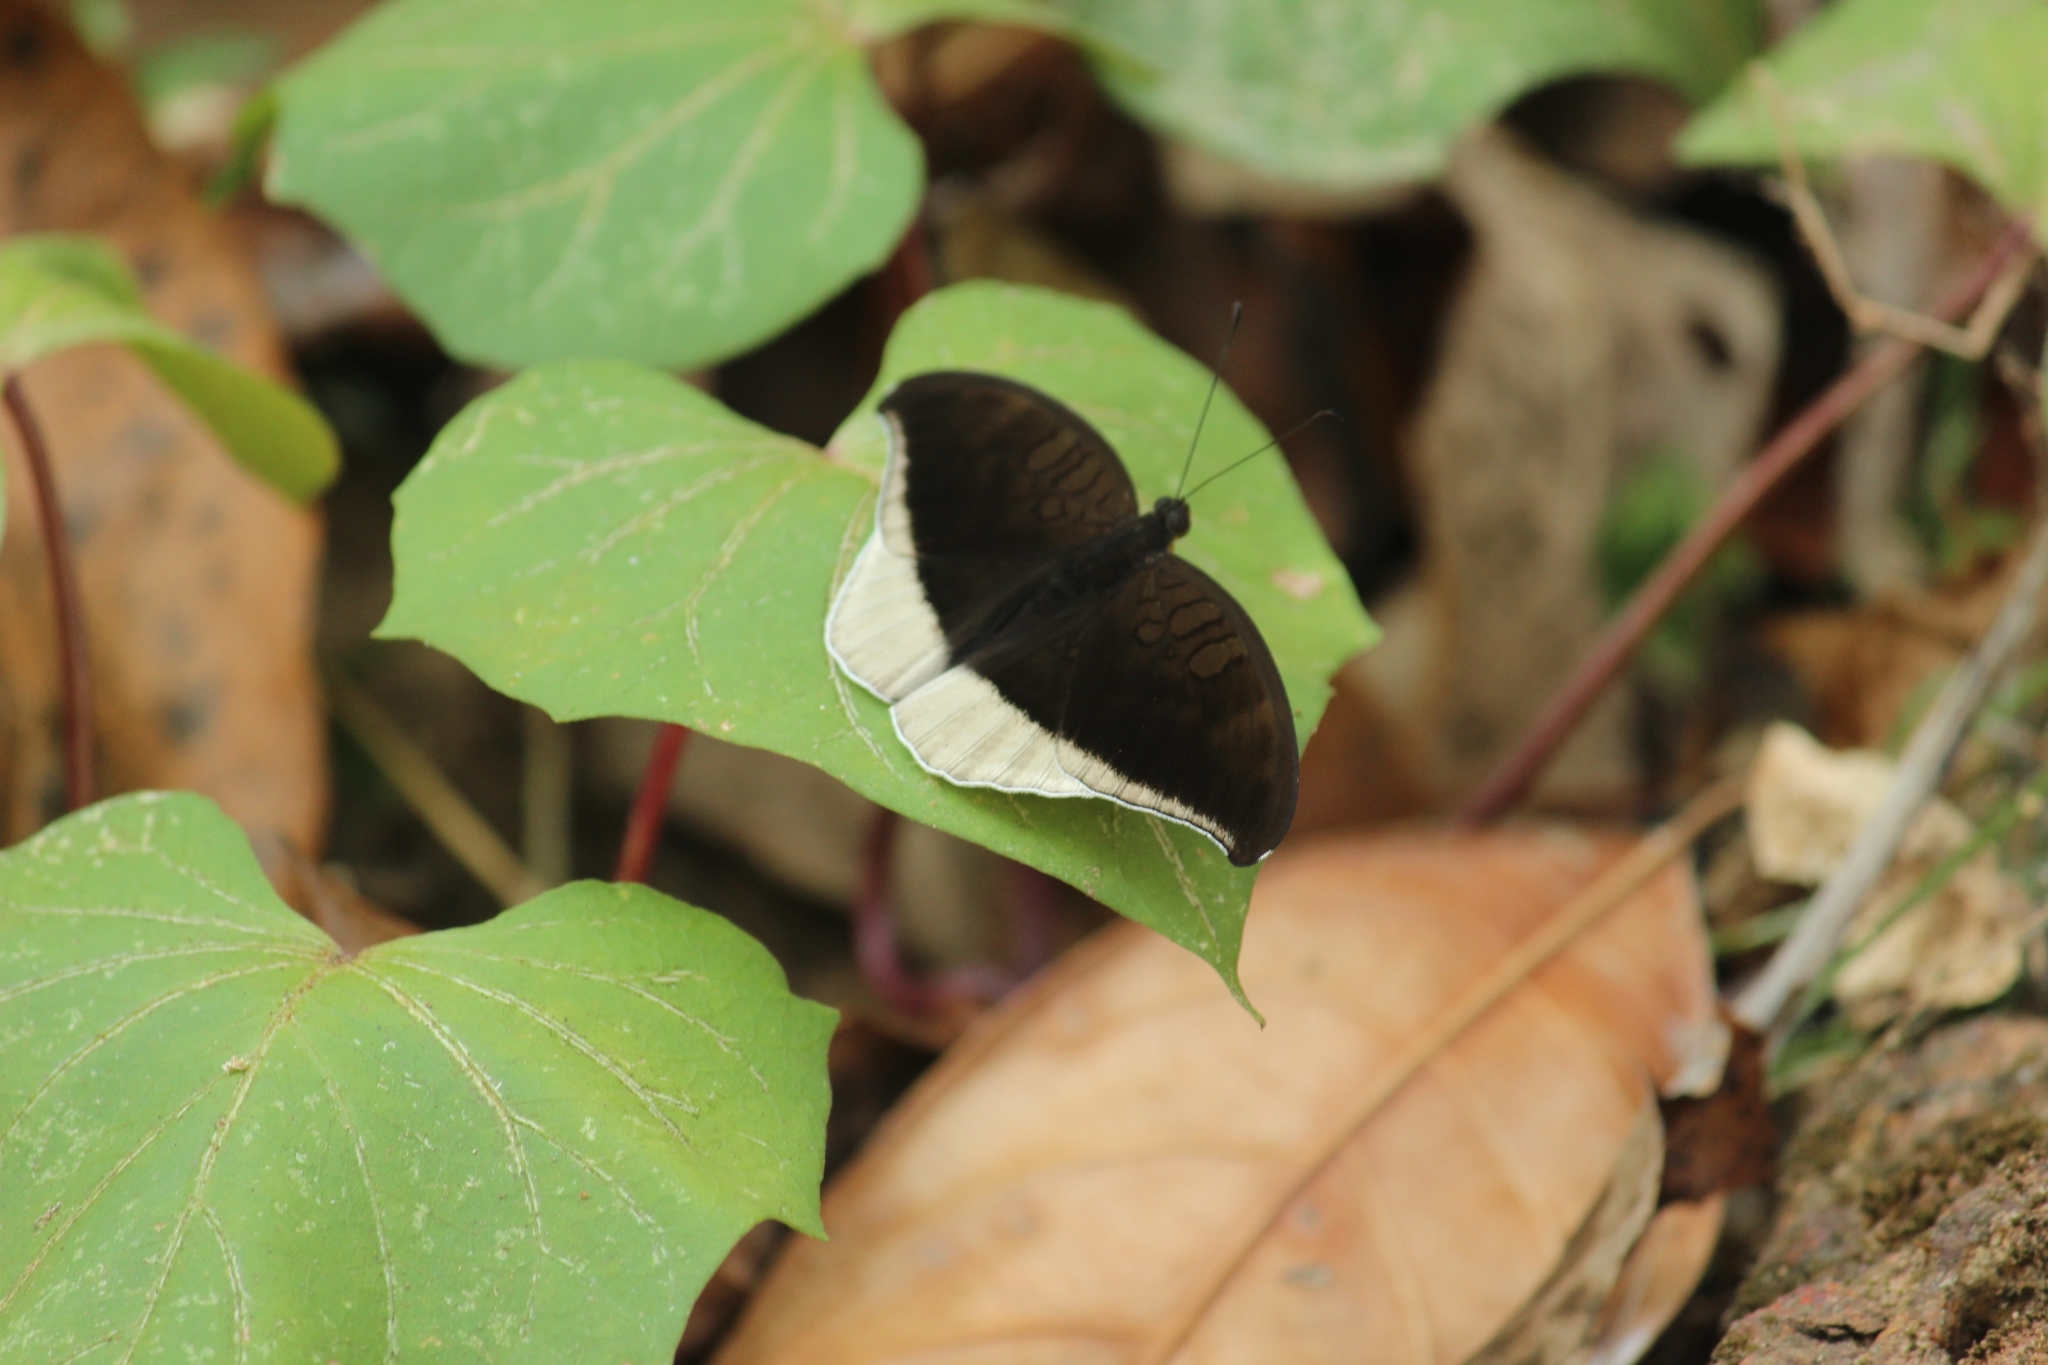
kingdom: Animalia
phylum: Arthropoda
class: Insecta
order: Lepidoptera
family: Nymphalidae
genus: Tanaecia
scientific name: Tanaecia lepidea
